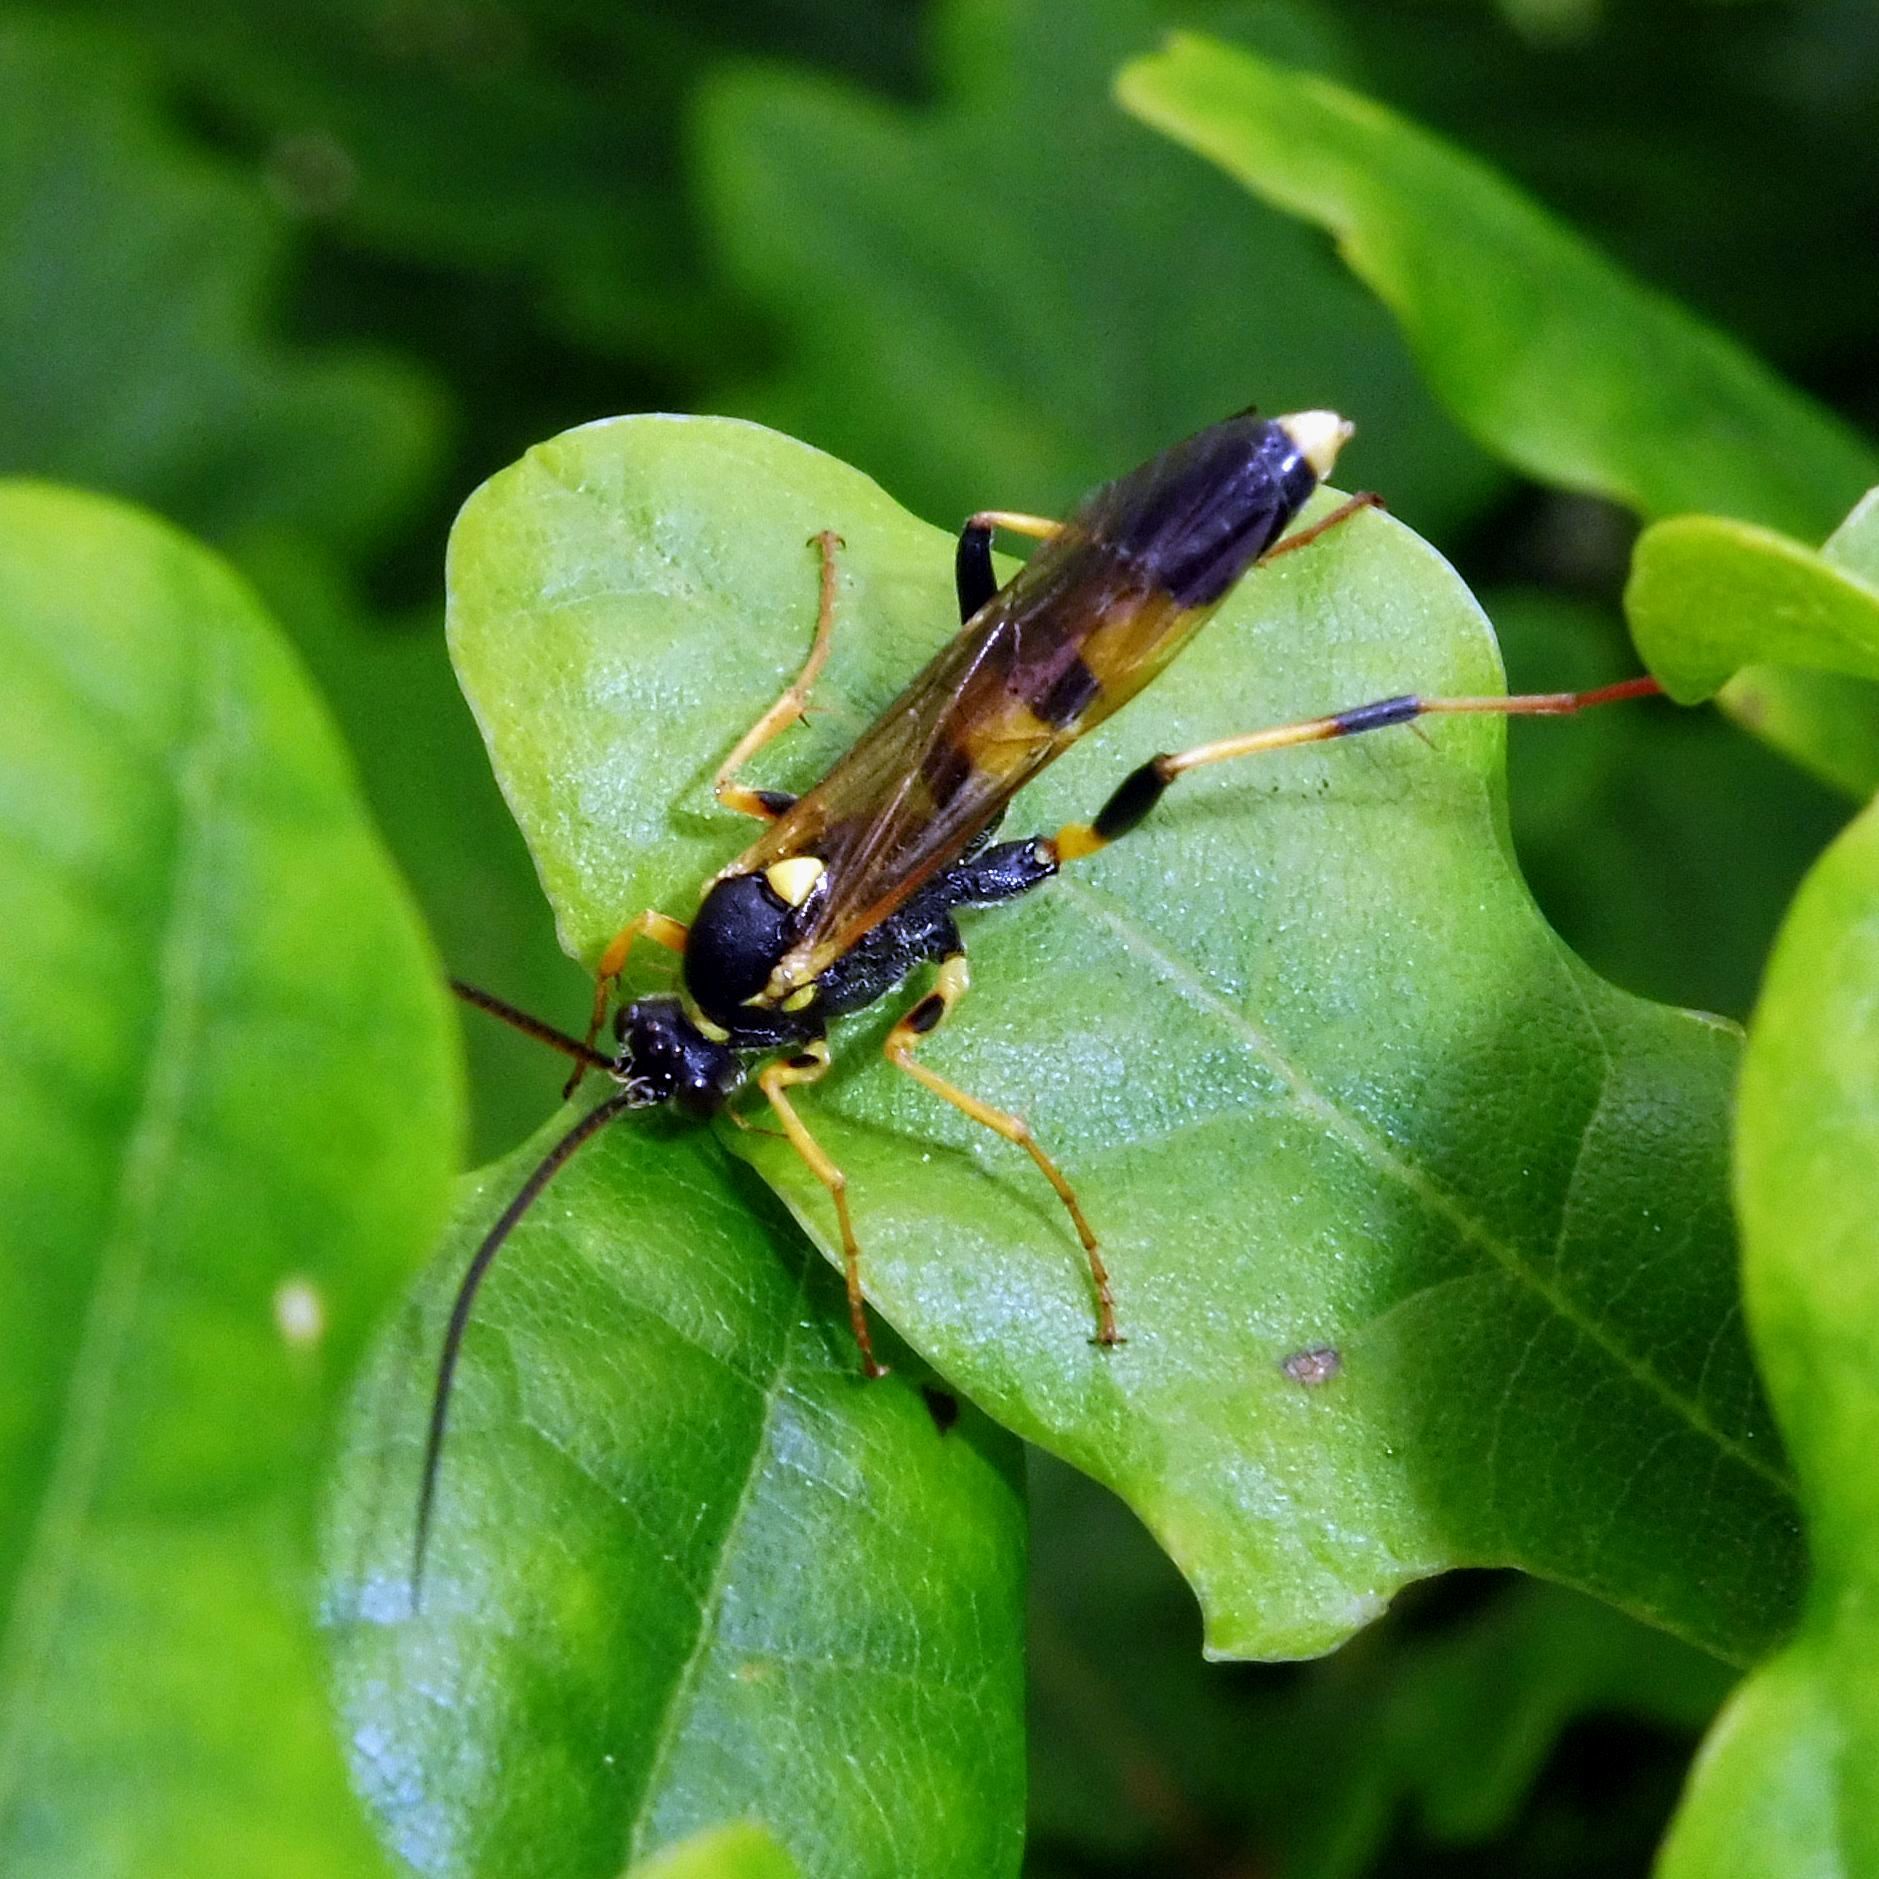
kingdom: Animalia
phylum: Arthropoda
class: Insecta
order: Hymenoptera
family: Ichneumonidae
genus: Amblyteles
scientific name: Amblyteles armatorius
